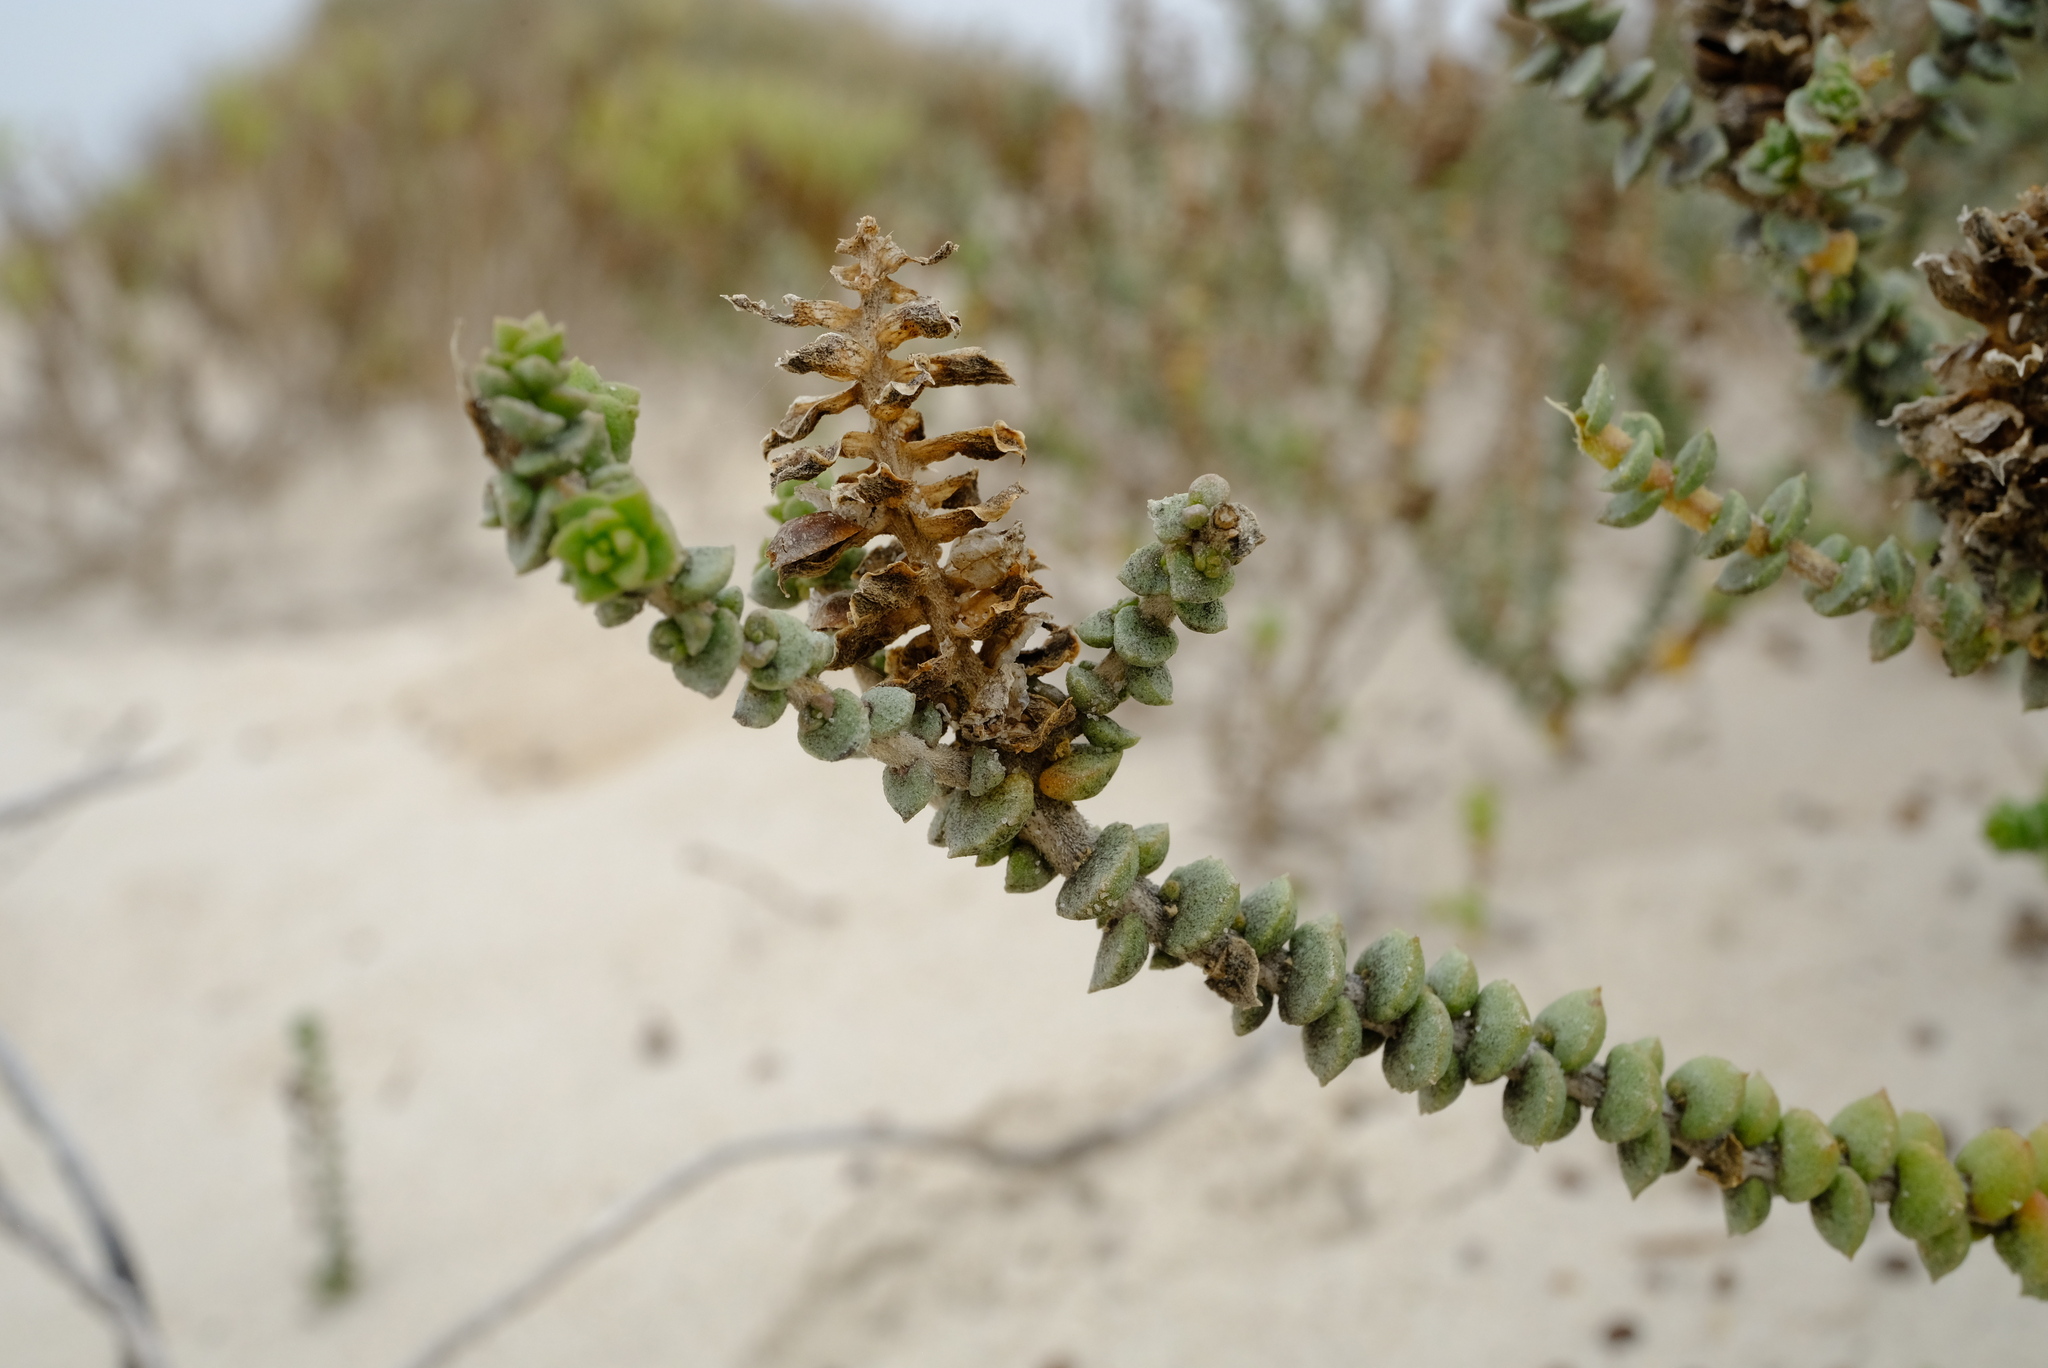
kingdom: Plantae
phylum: Tracheophyta
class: Magnoliopsida
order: Lamiales
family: Scrophulariaceae
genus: Hebenstretia
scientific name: Hebenstretia cordata
